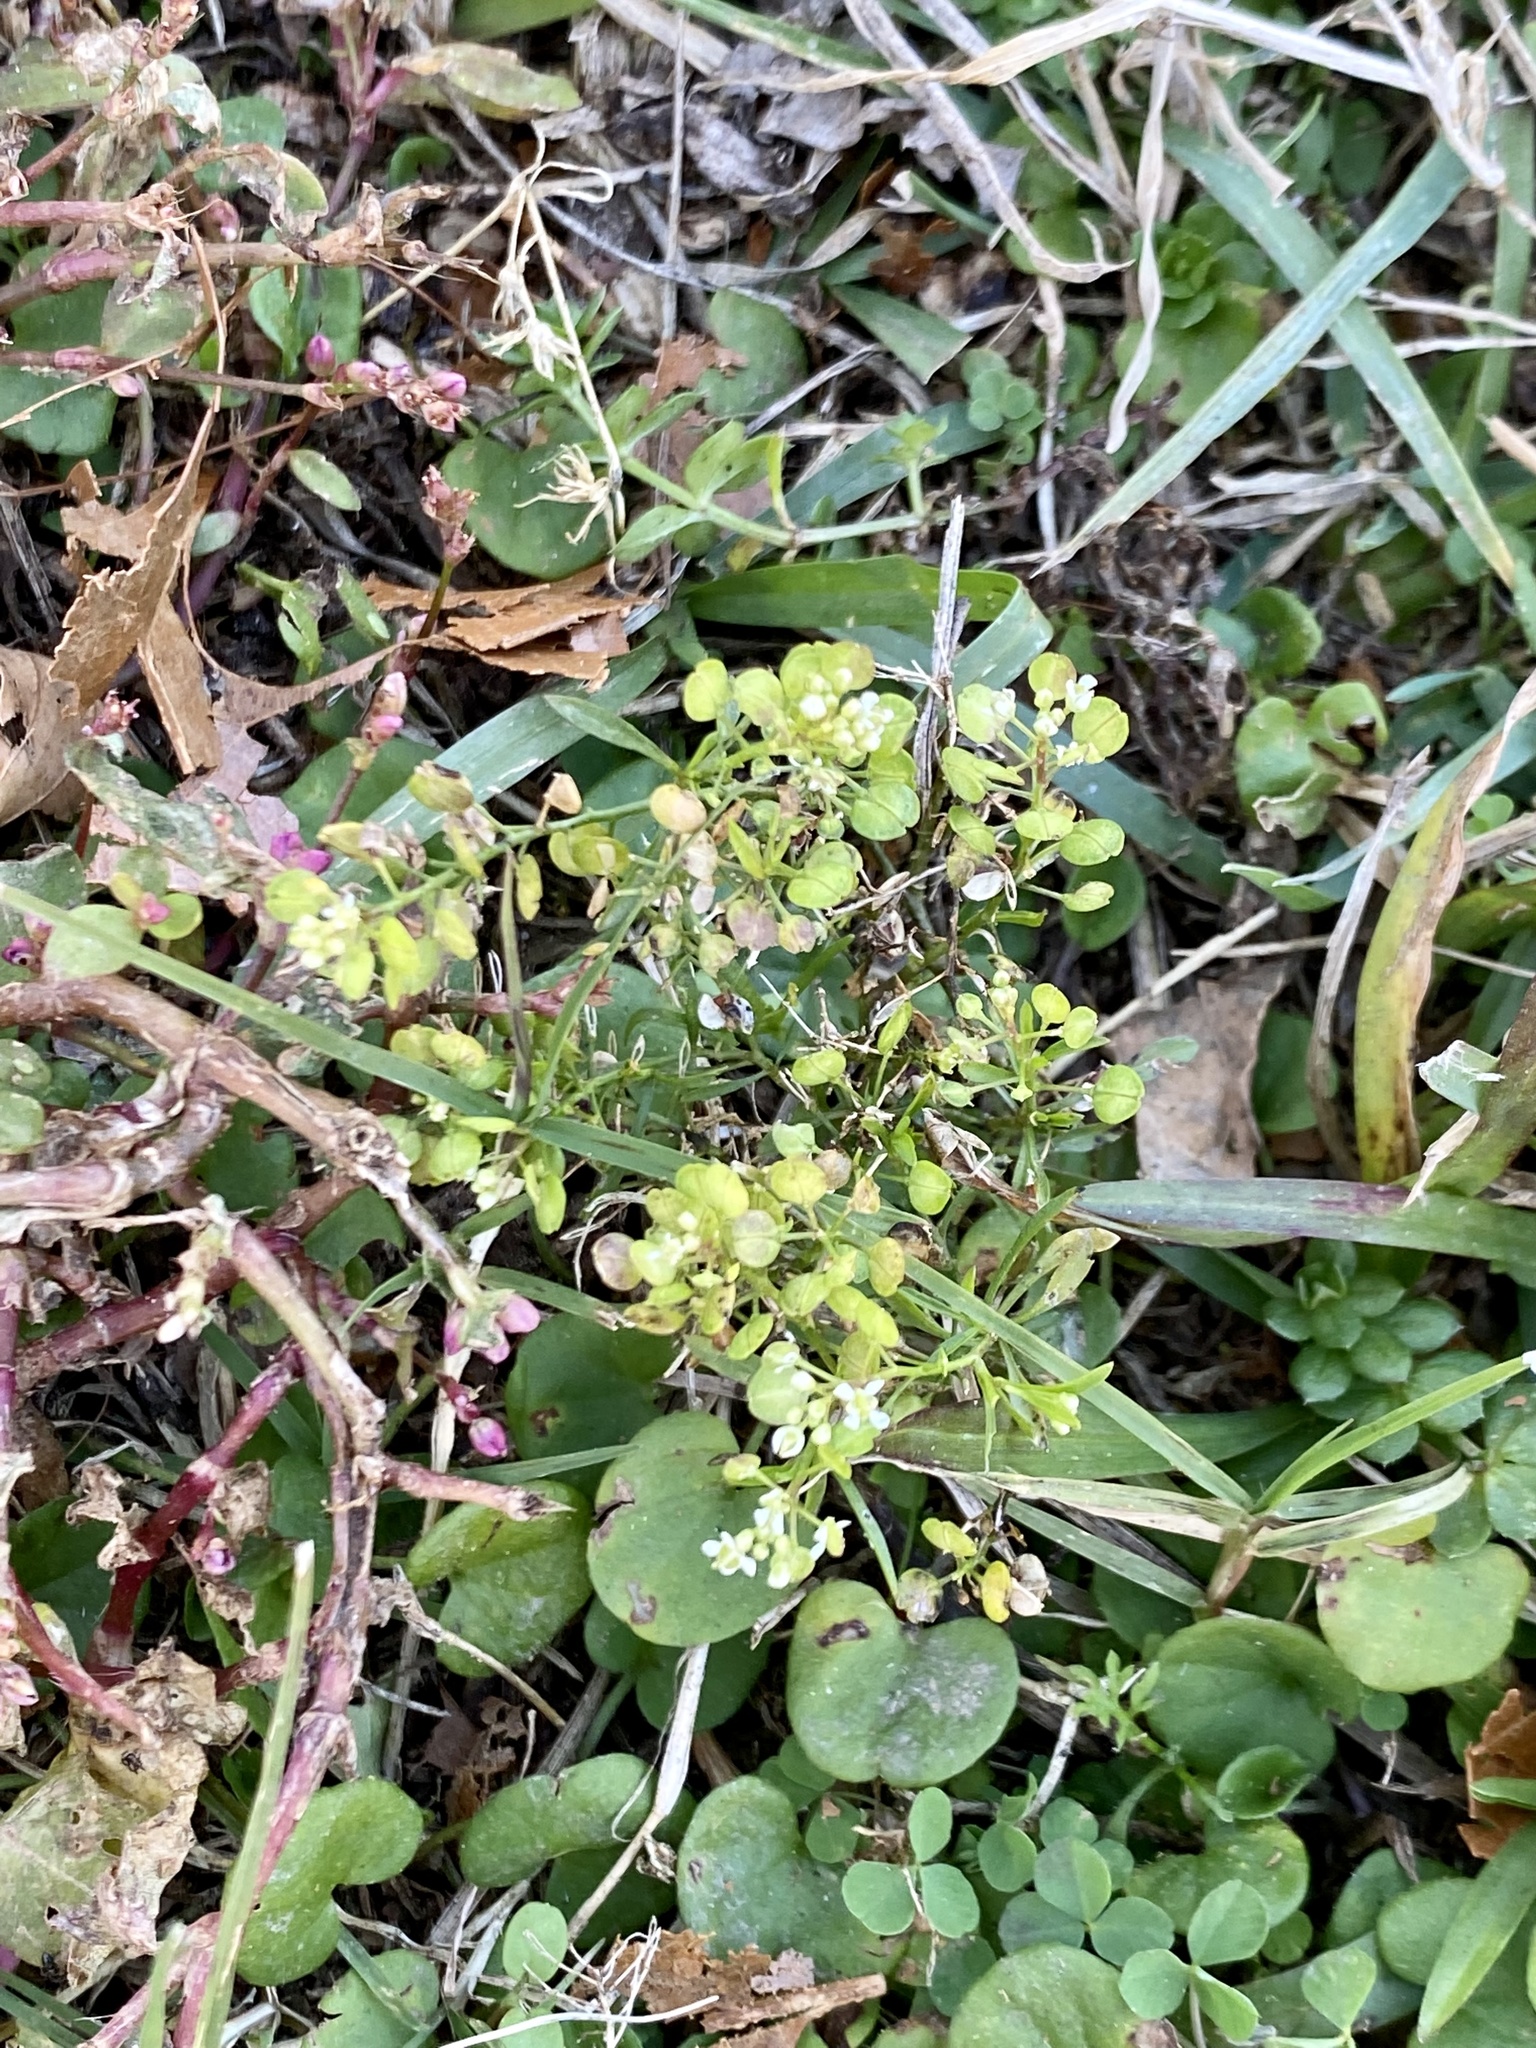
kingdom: Plantae
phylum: Tracheophyta
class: Magnoliopsida
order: Brassicales
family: Brassicaceae
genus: Lepidium
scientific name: Lepidium virginicum
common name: Least pepperwort
